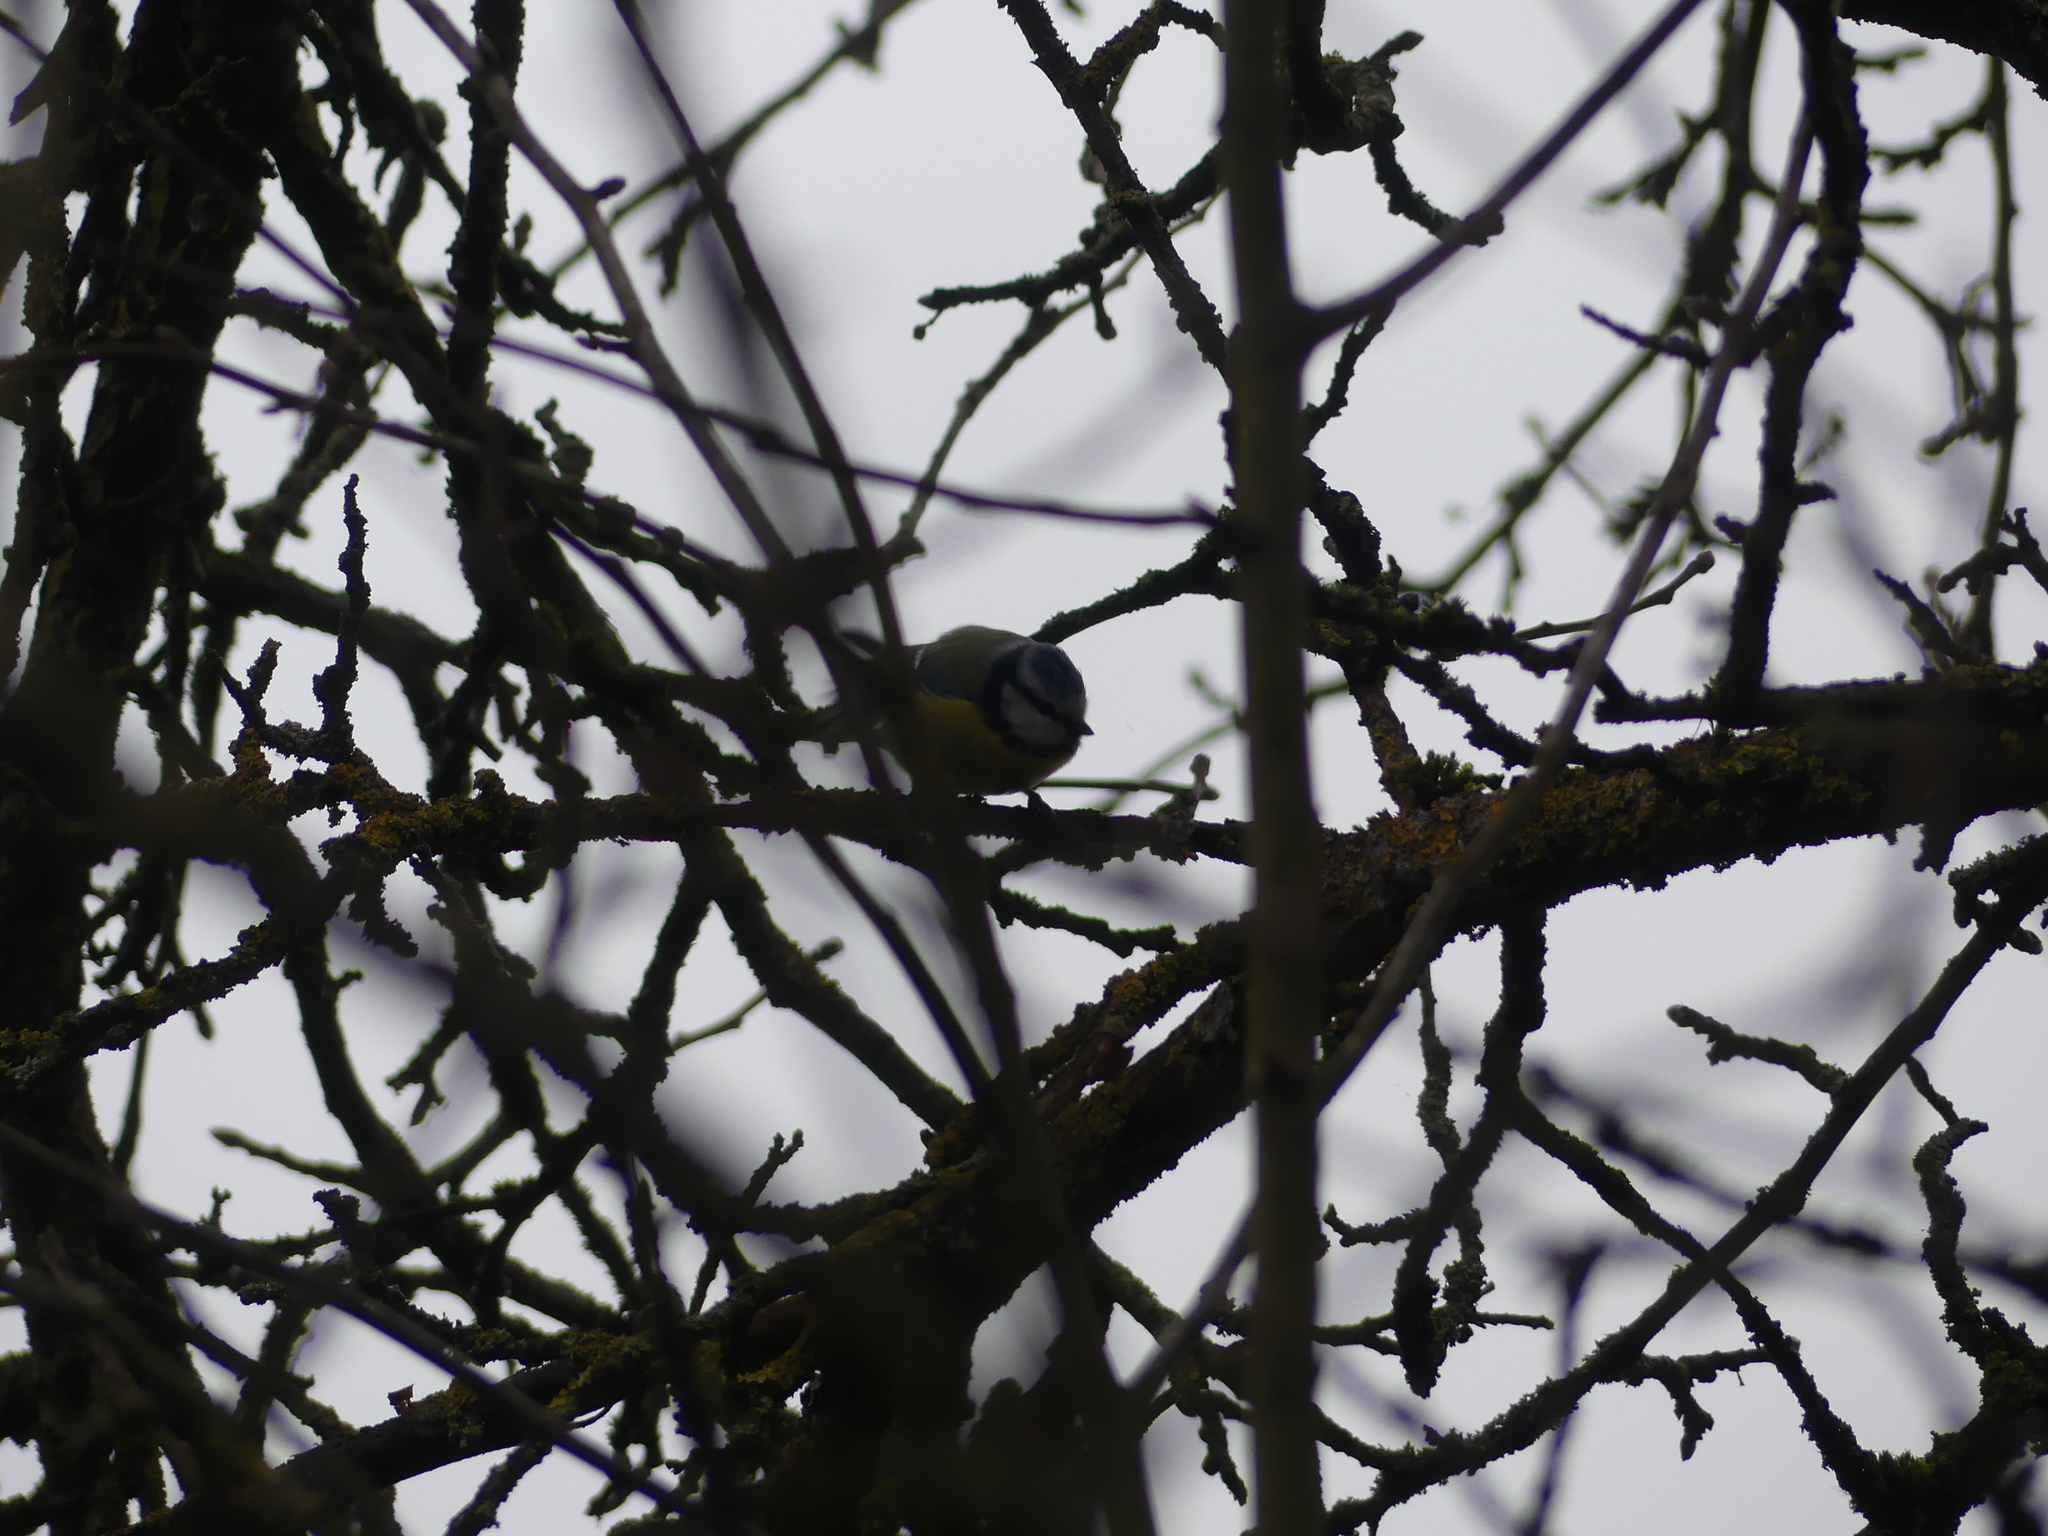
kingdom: Animalia
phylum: Chordata
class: Aves
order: Passeriformes
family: Paridae
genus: Cyanistes
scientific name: Cyanistes caeruleus
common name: Eurasian blue tit
